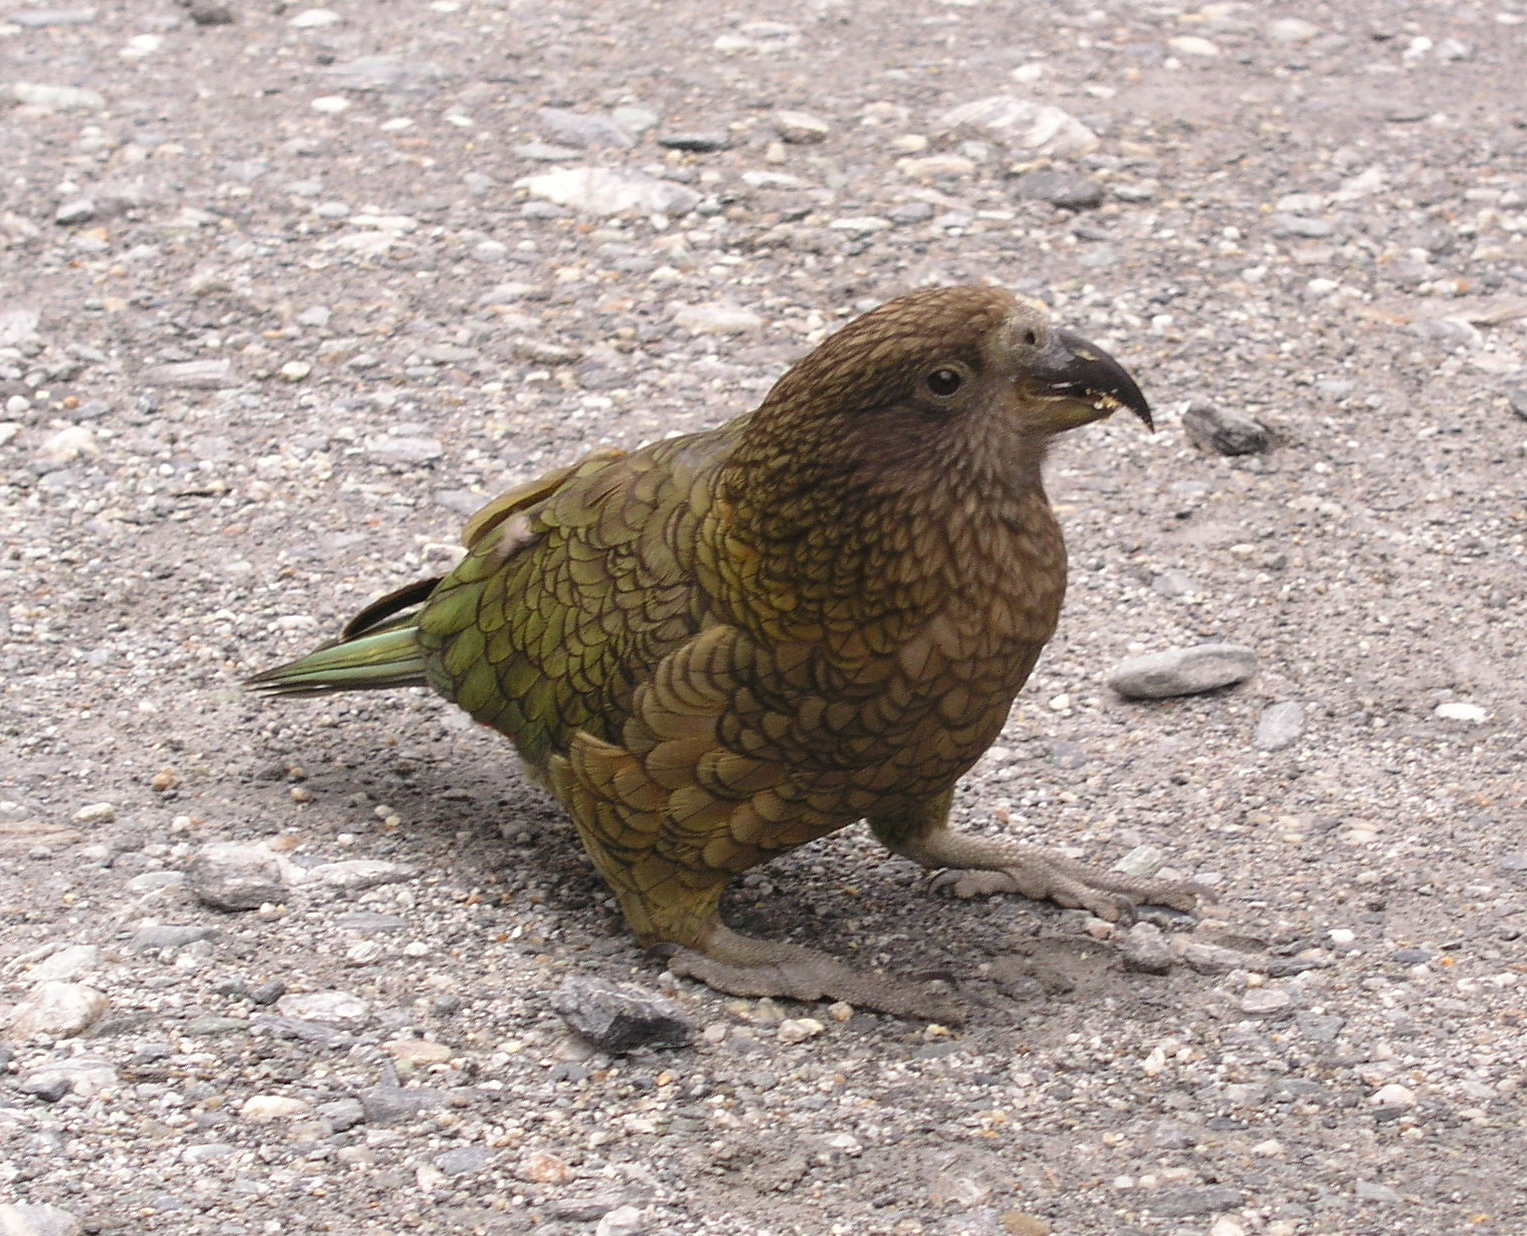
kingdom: Animalia
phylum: Chordata
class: Aves
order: Psittaciformes
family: Psittacidae
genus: Nestor
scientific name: Nestor notabilis
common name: Kea
